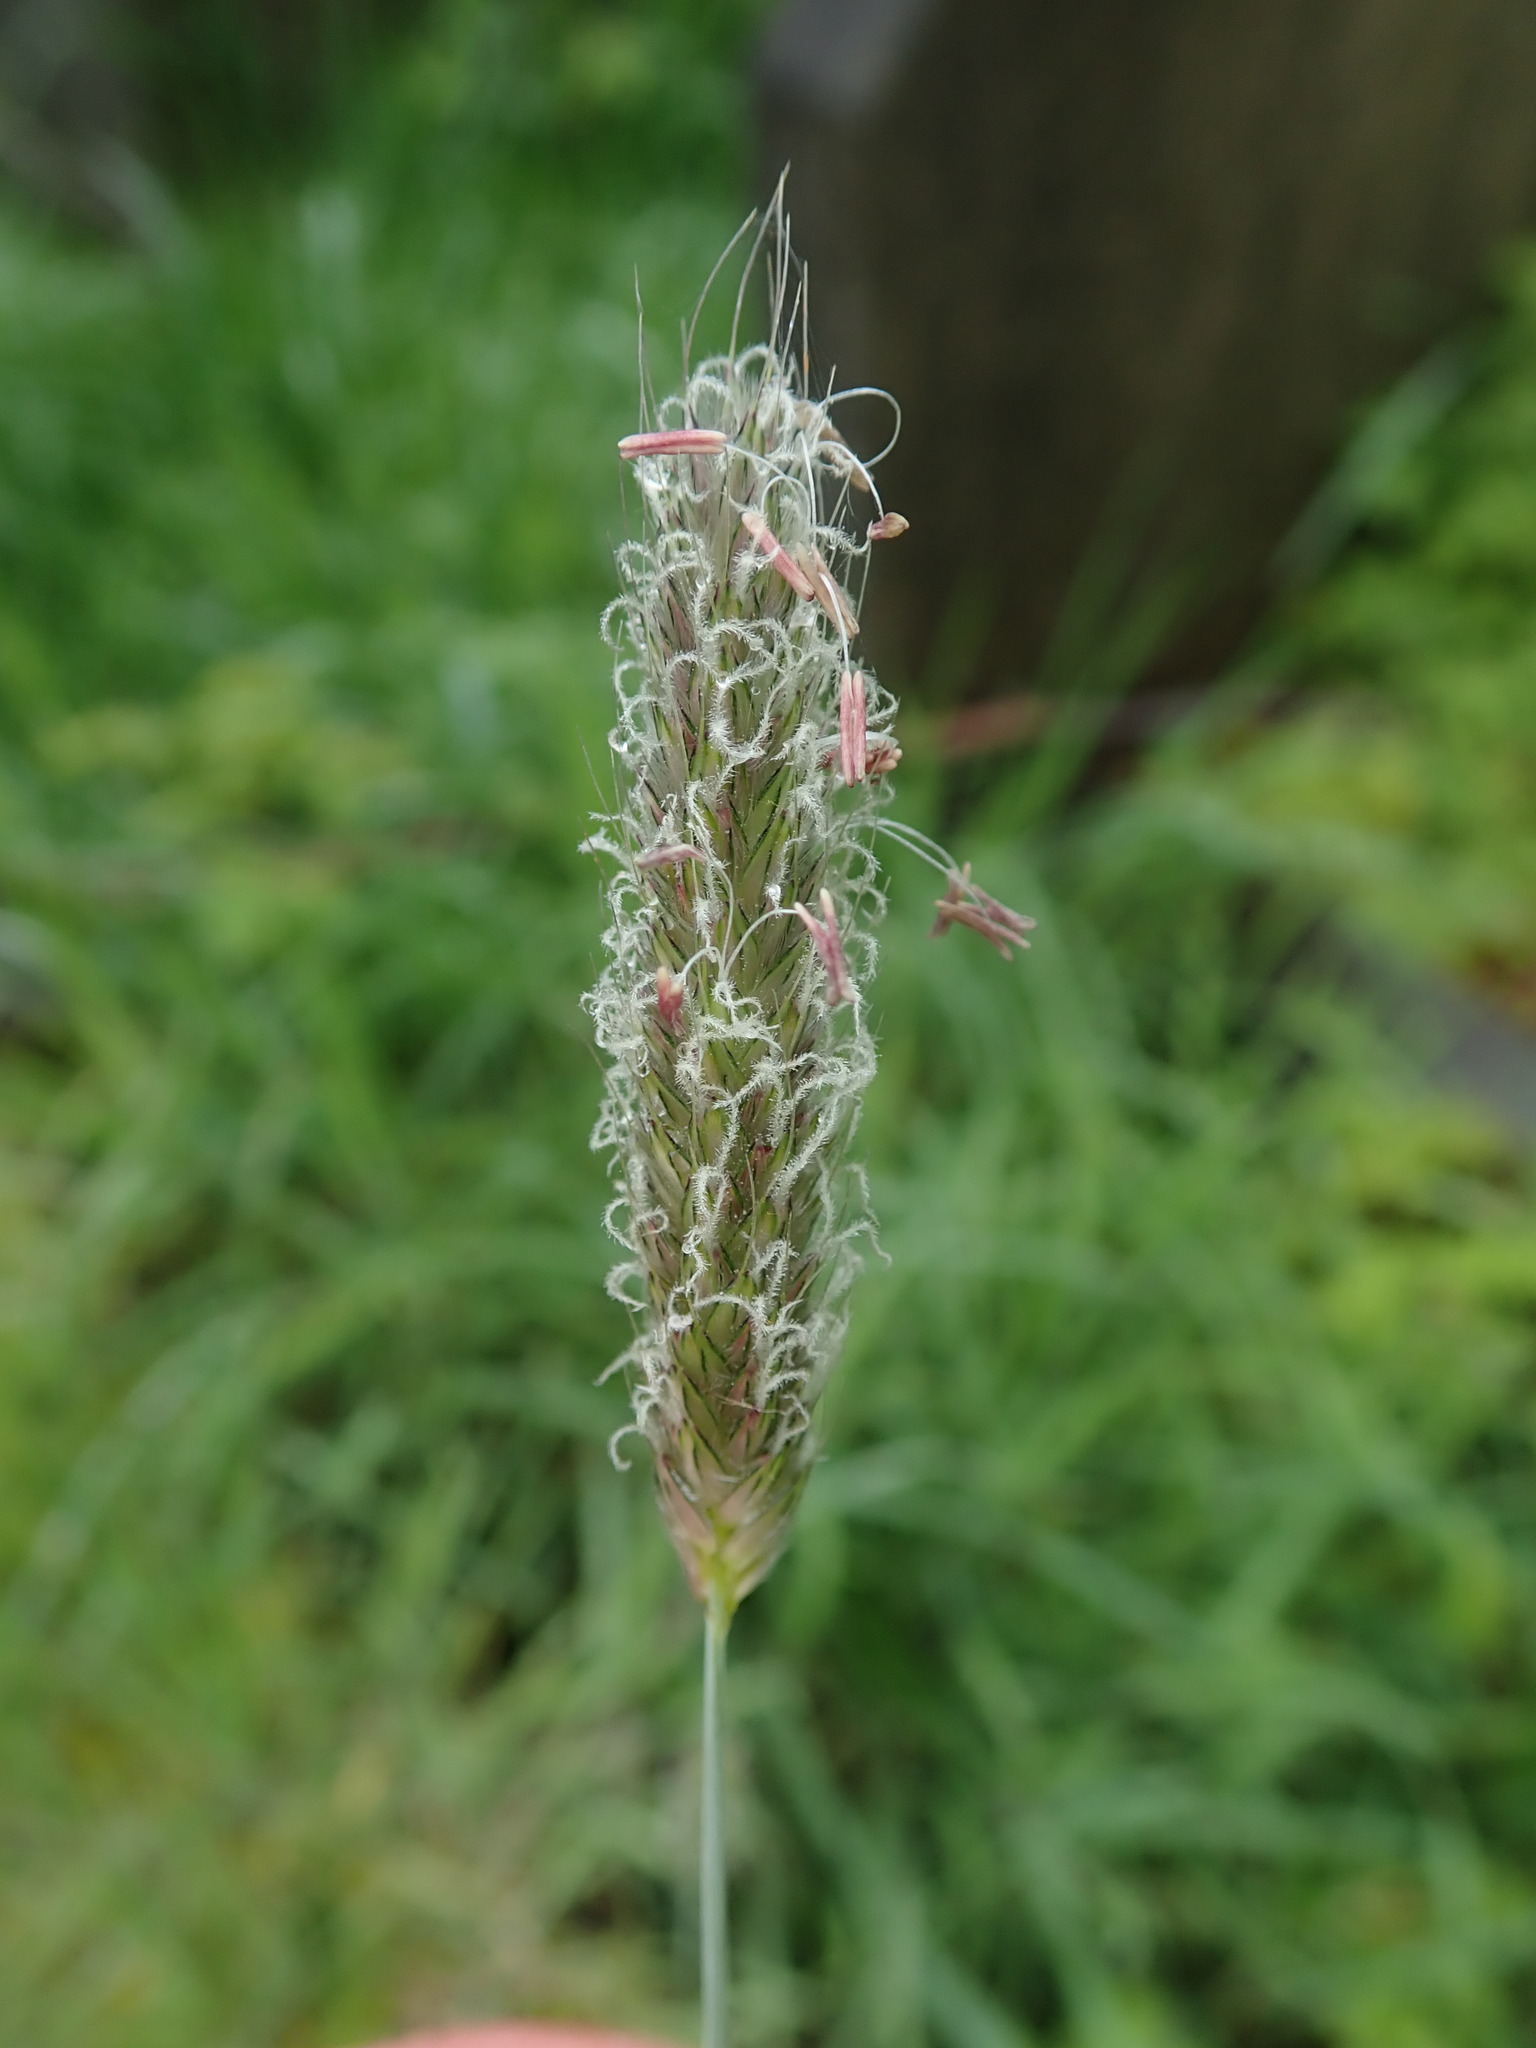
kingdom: Plantae
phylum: Tracheophyta
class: Liliopsida
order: Poales
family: Poaceae
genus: Alopecurus
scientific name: Alopecurus pratensis
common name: Meadow foxtail
